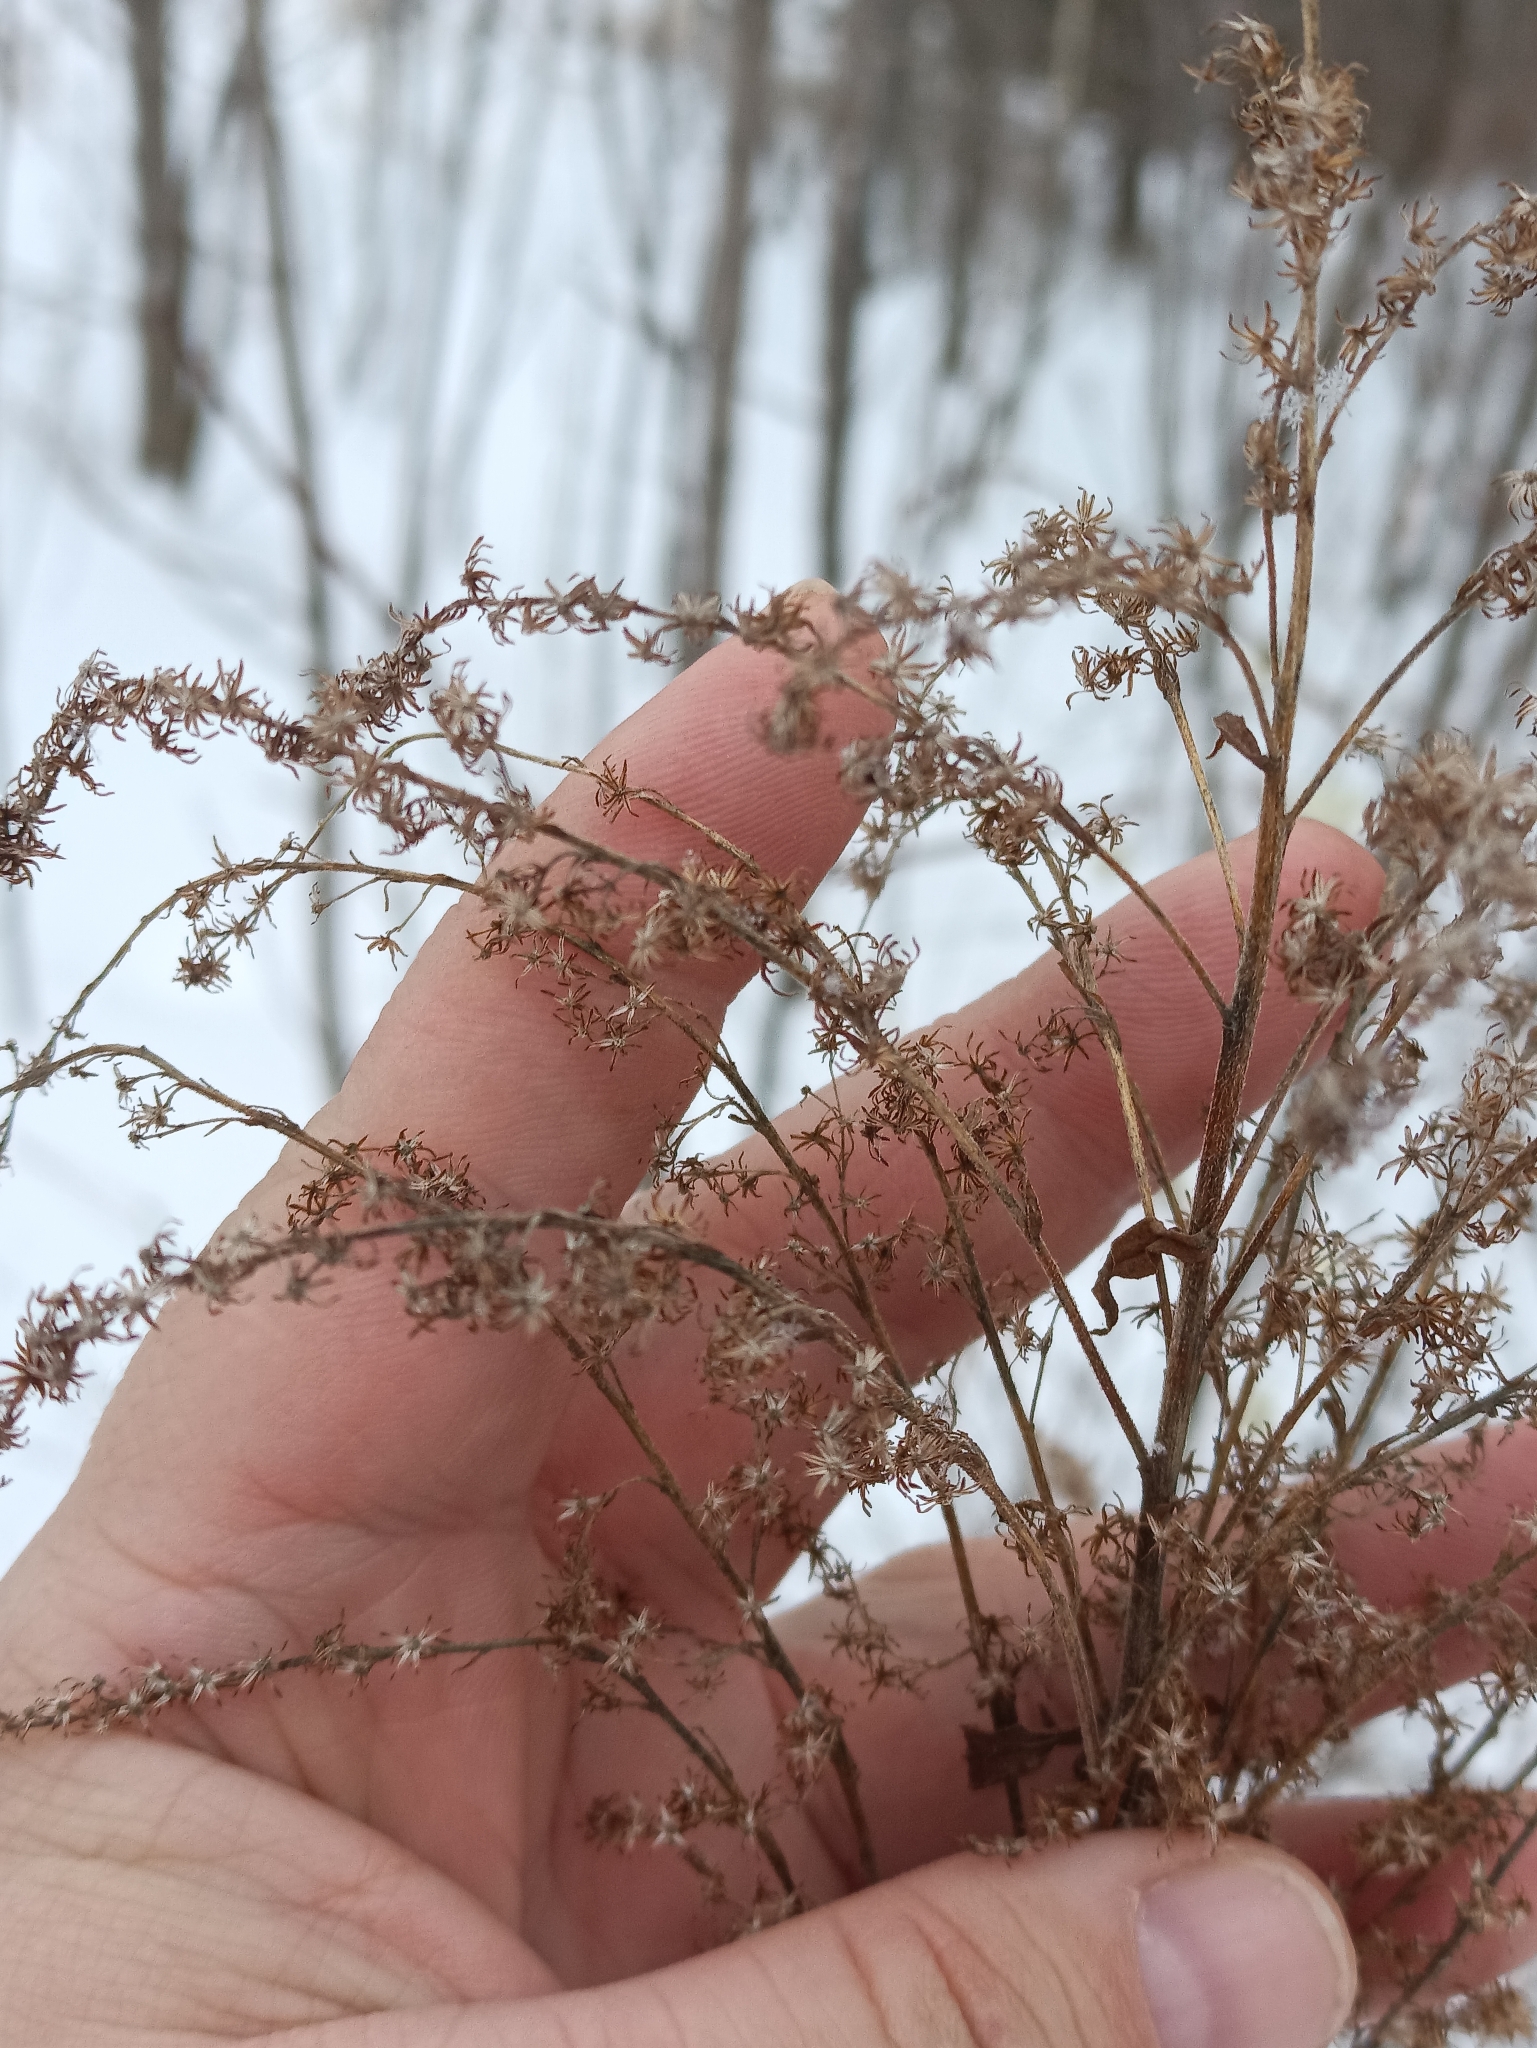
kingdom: Plantae
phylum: Tracheophyta
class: Magnoliopsida
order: Asterales
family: Asteraceae
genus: Solidago
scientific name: Solidago canadensis
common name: Canada goldenrod
